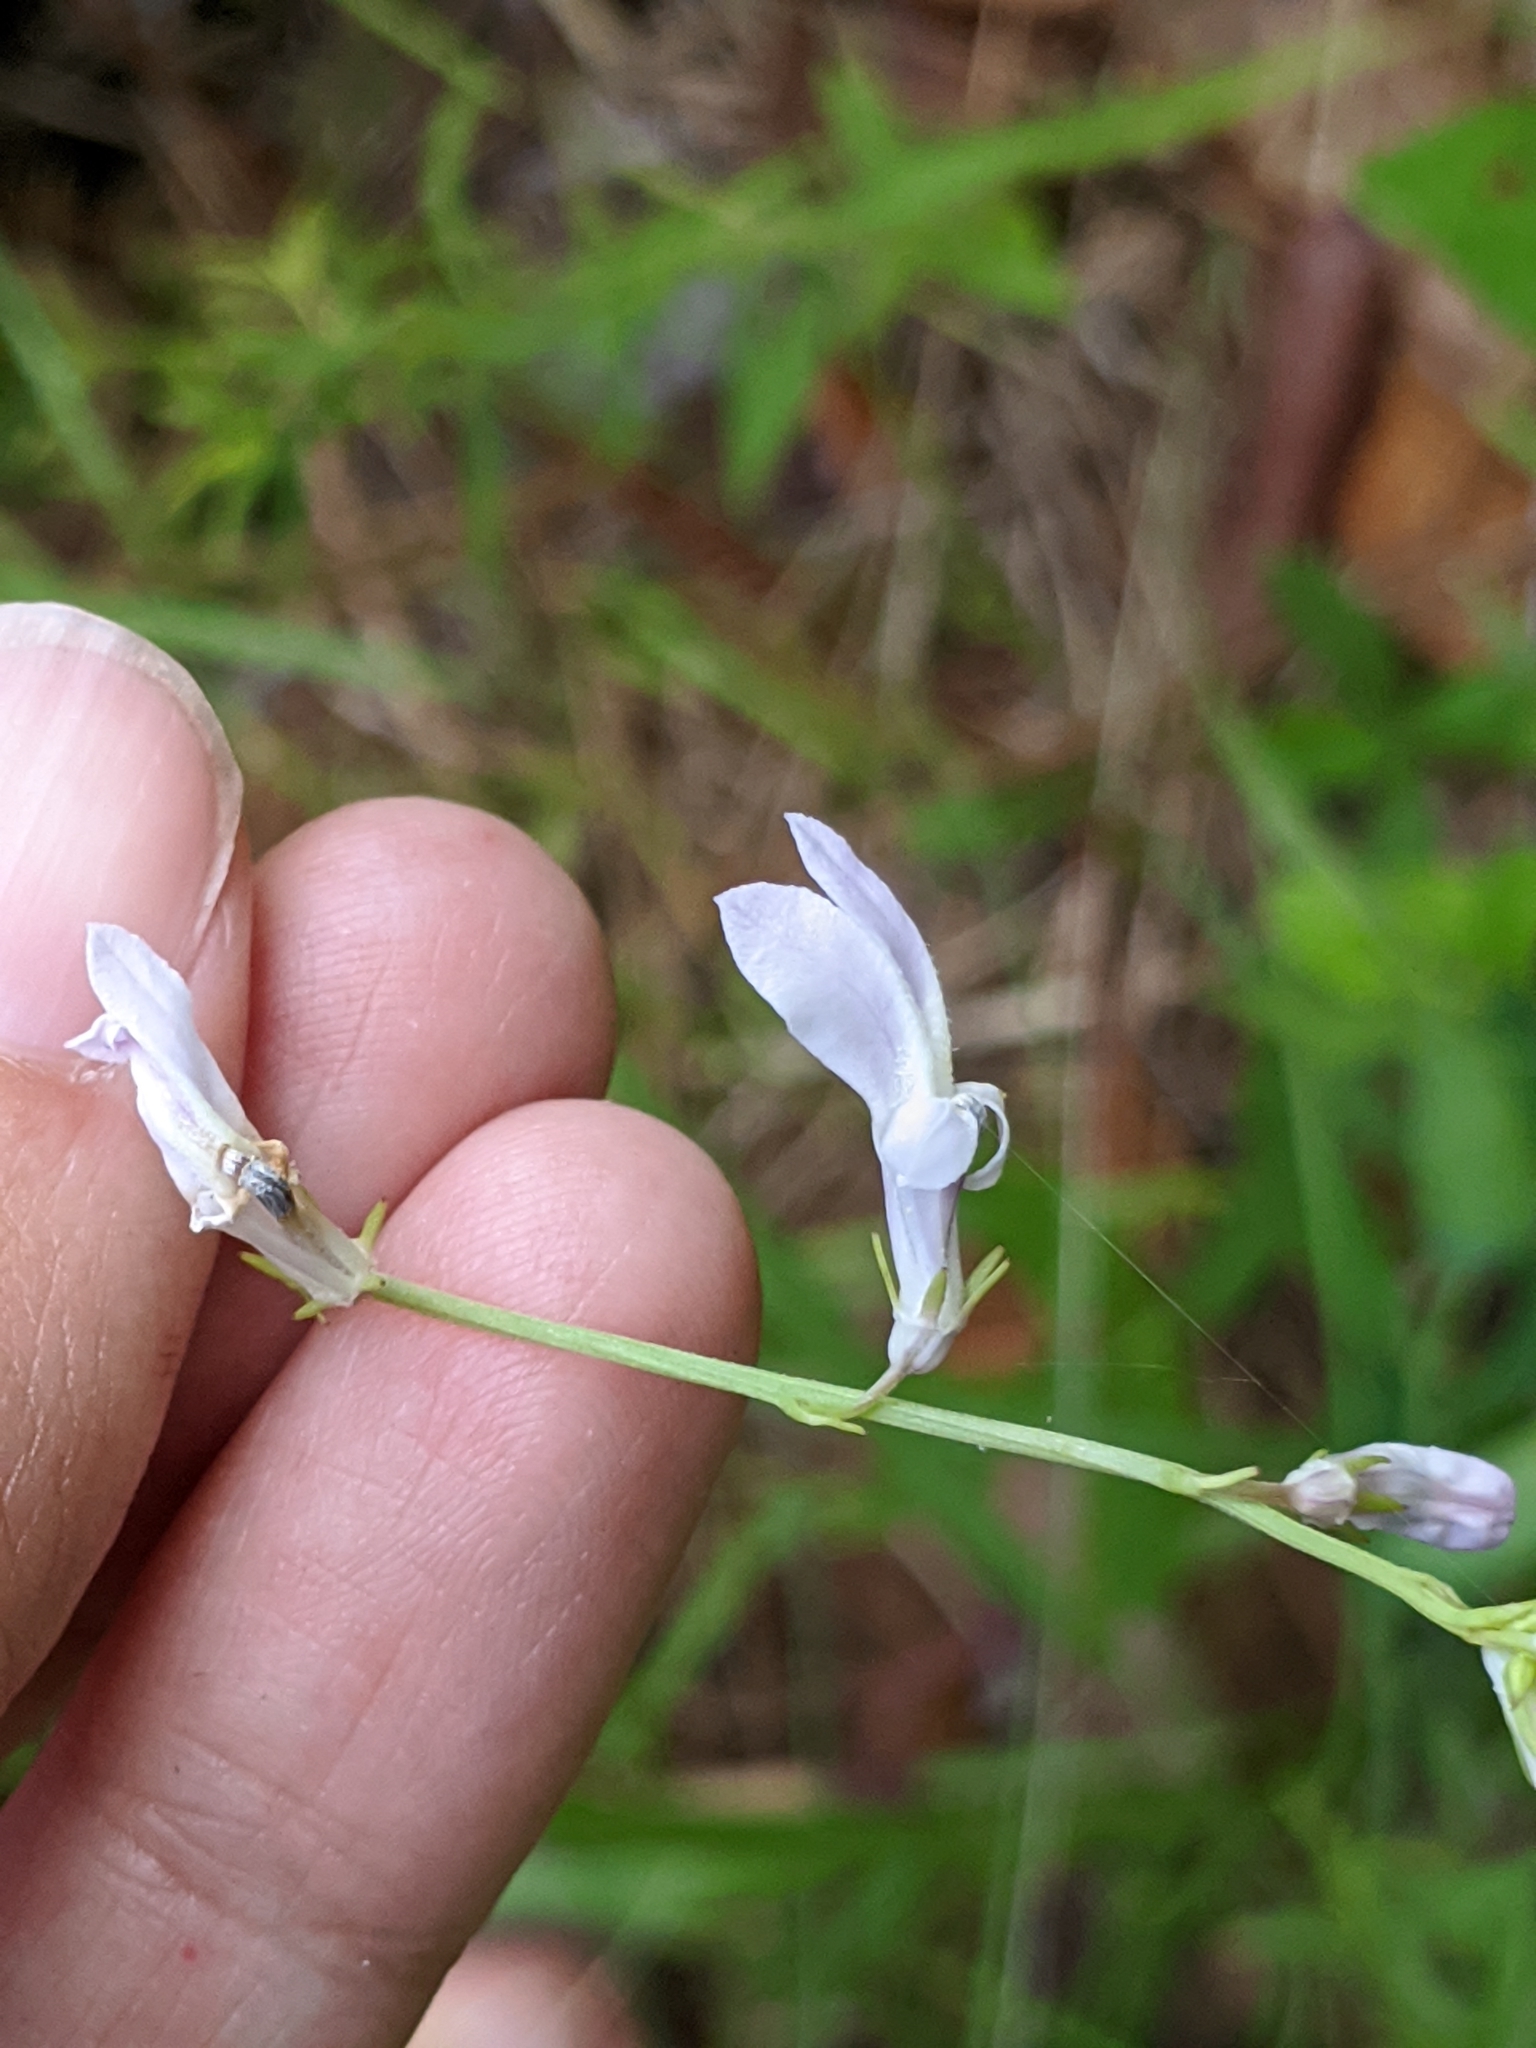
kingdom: Plantae
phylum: Tracheophyta
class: Magnoliopsida
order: Asterales
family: Campanulaceae
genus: Lobelia
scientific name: Lobelia paludosa
